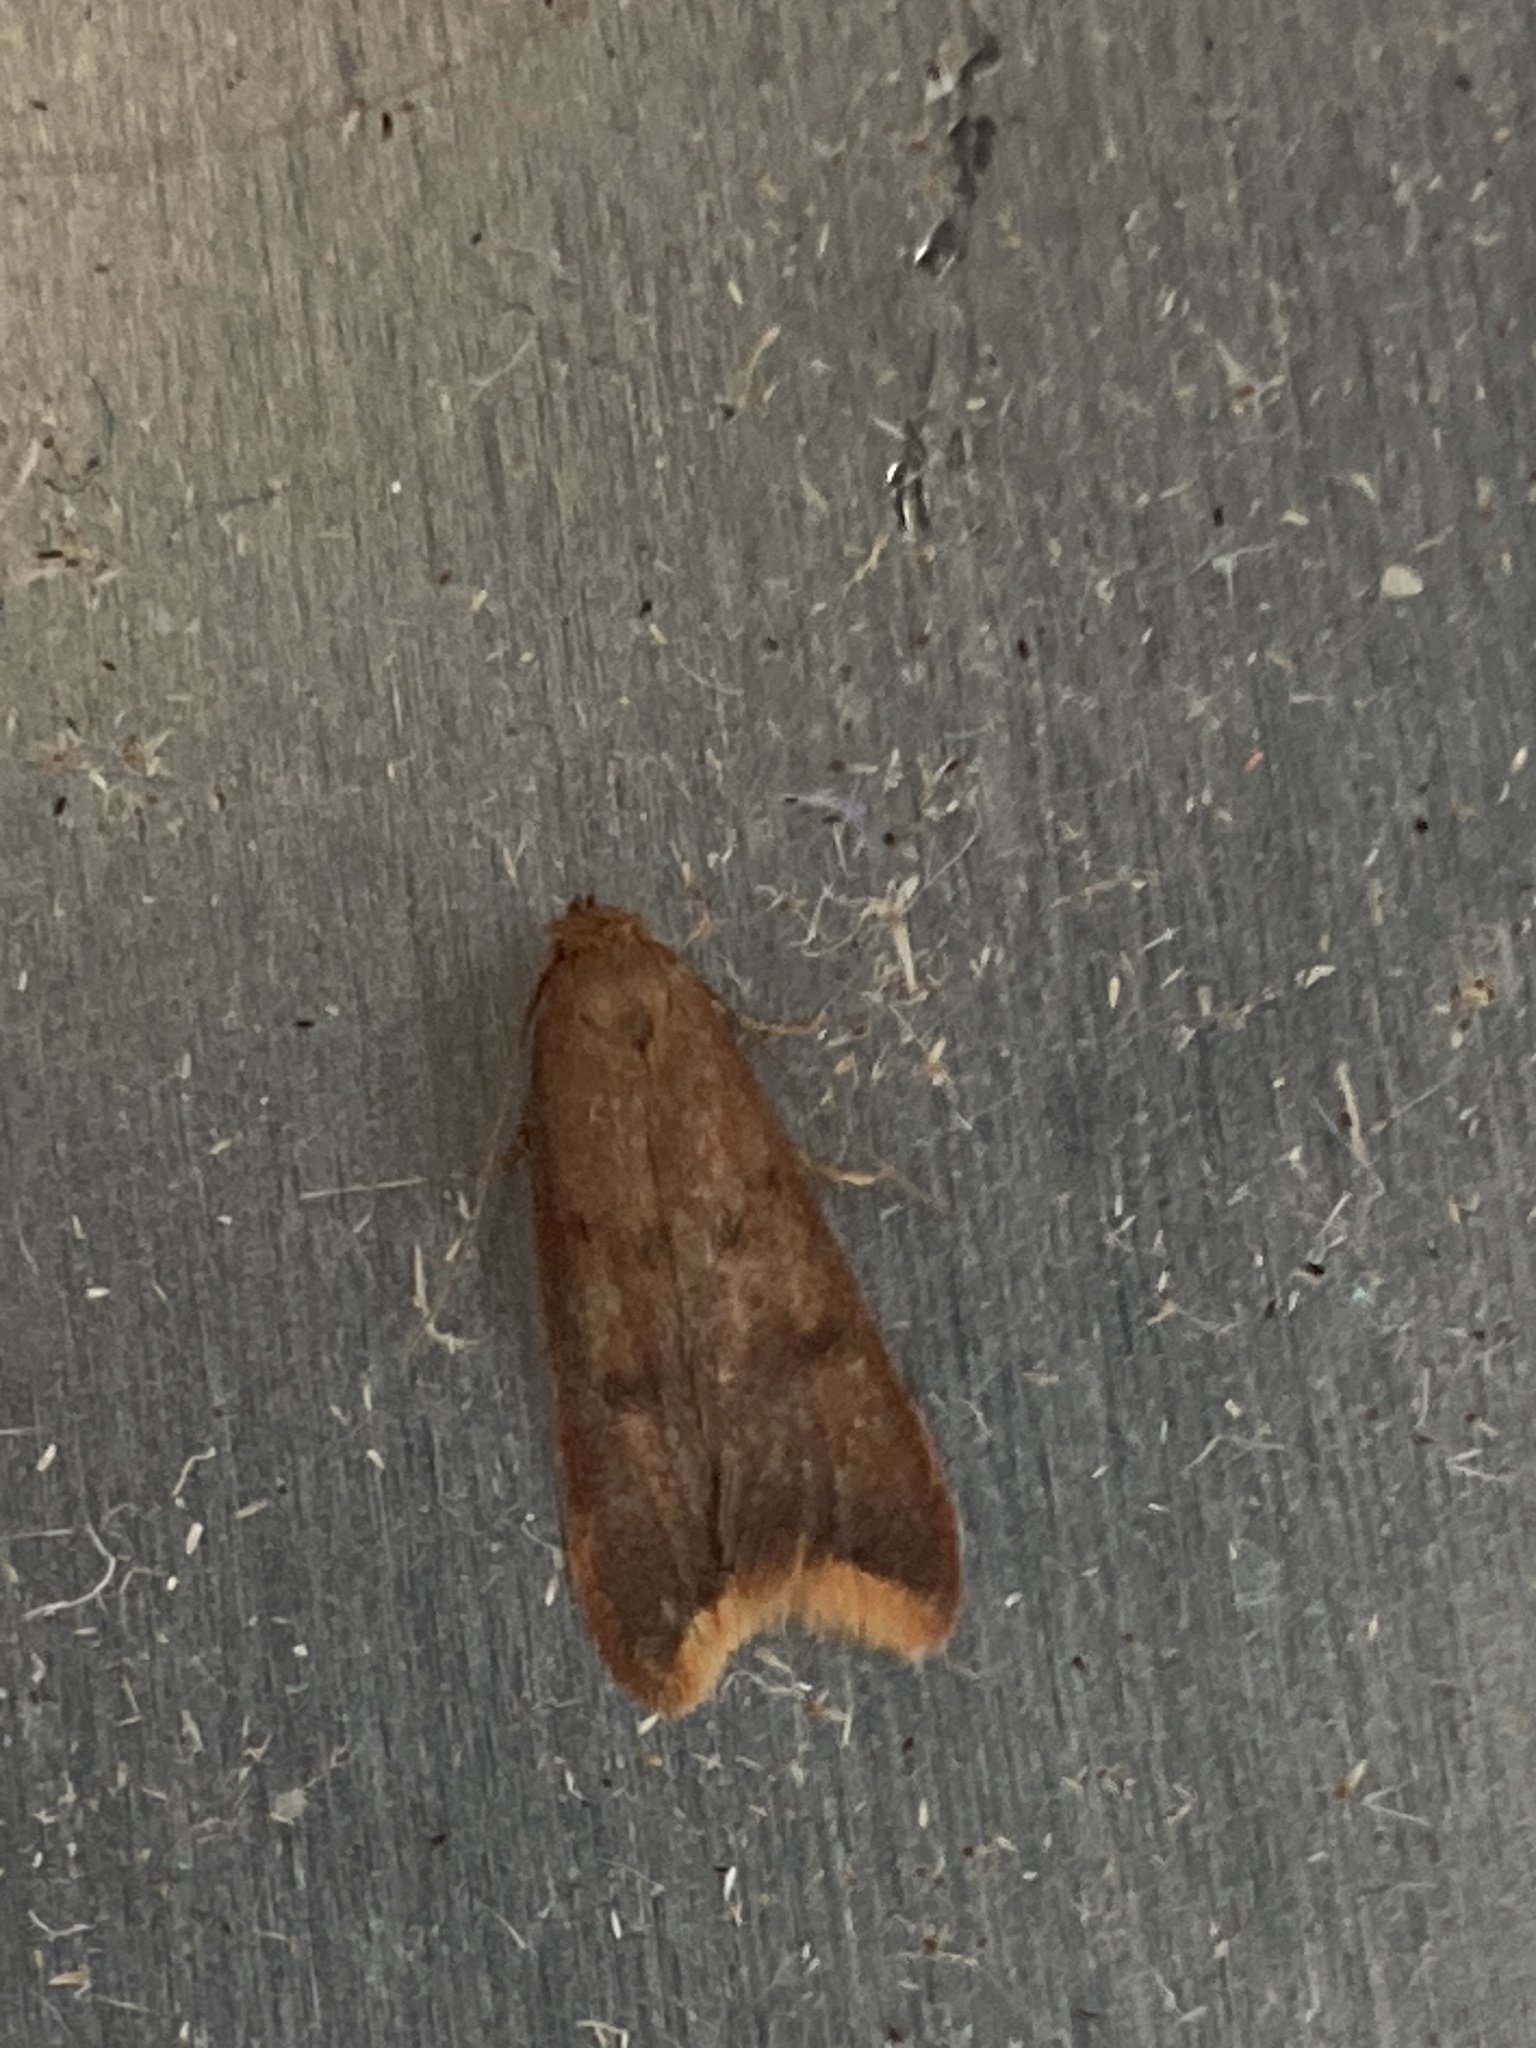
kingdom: Animalia
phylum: Arthropoda
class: Insecta
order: Lepidoptera
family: Oecophoridae
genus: Tachystola
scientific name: Tachystola acroxantha
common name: Ruddy streak
